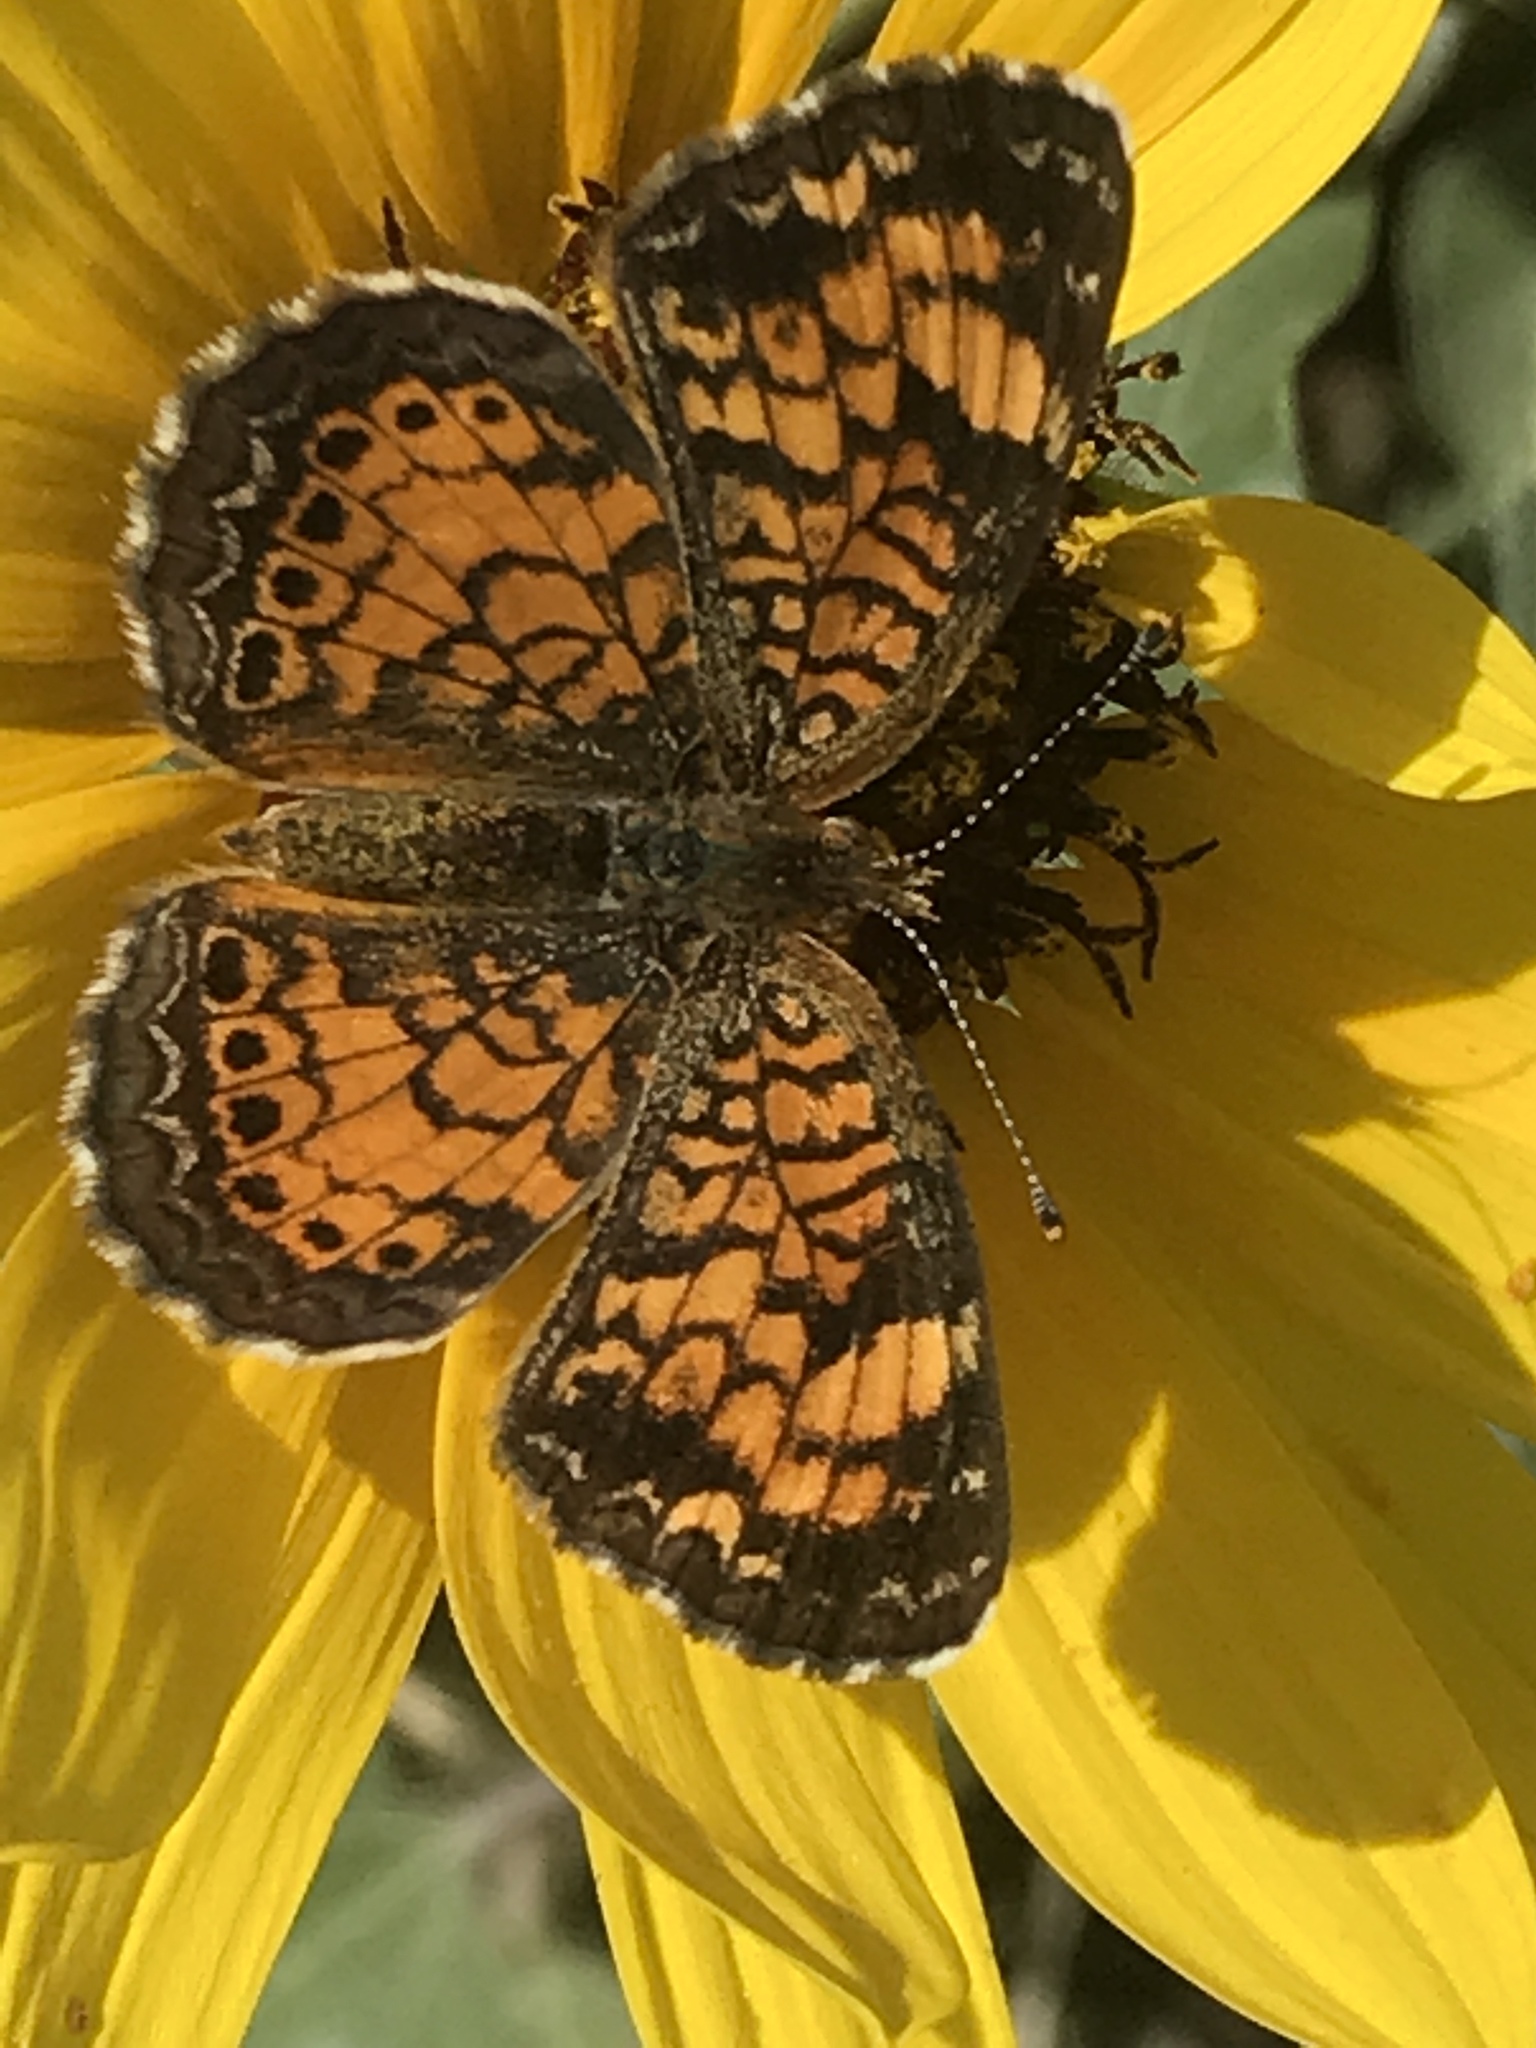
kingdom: Animalia
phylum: Arthropoda
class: Insecta
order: Lepidoptera
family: Nymphalidae
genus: Phyciodes
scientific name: Phyciodes tharos
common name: Pearl crescent
